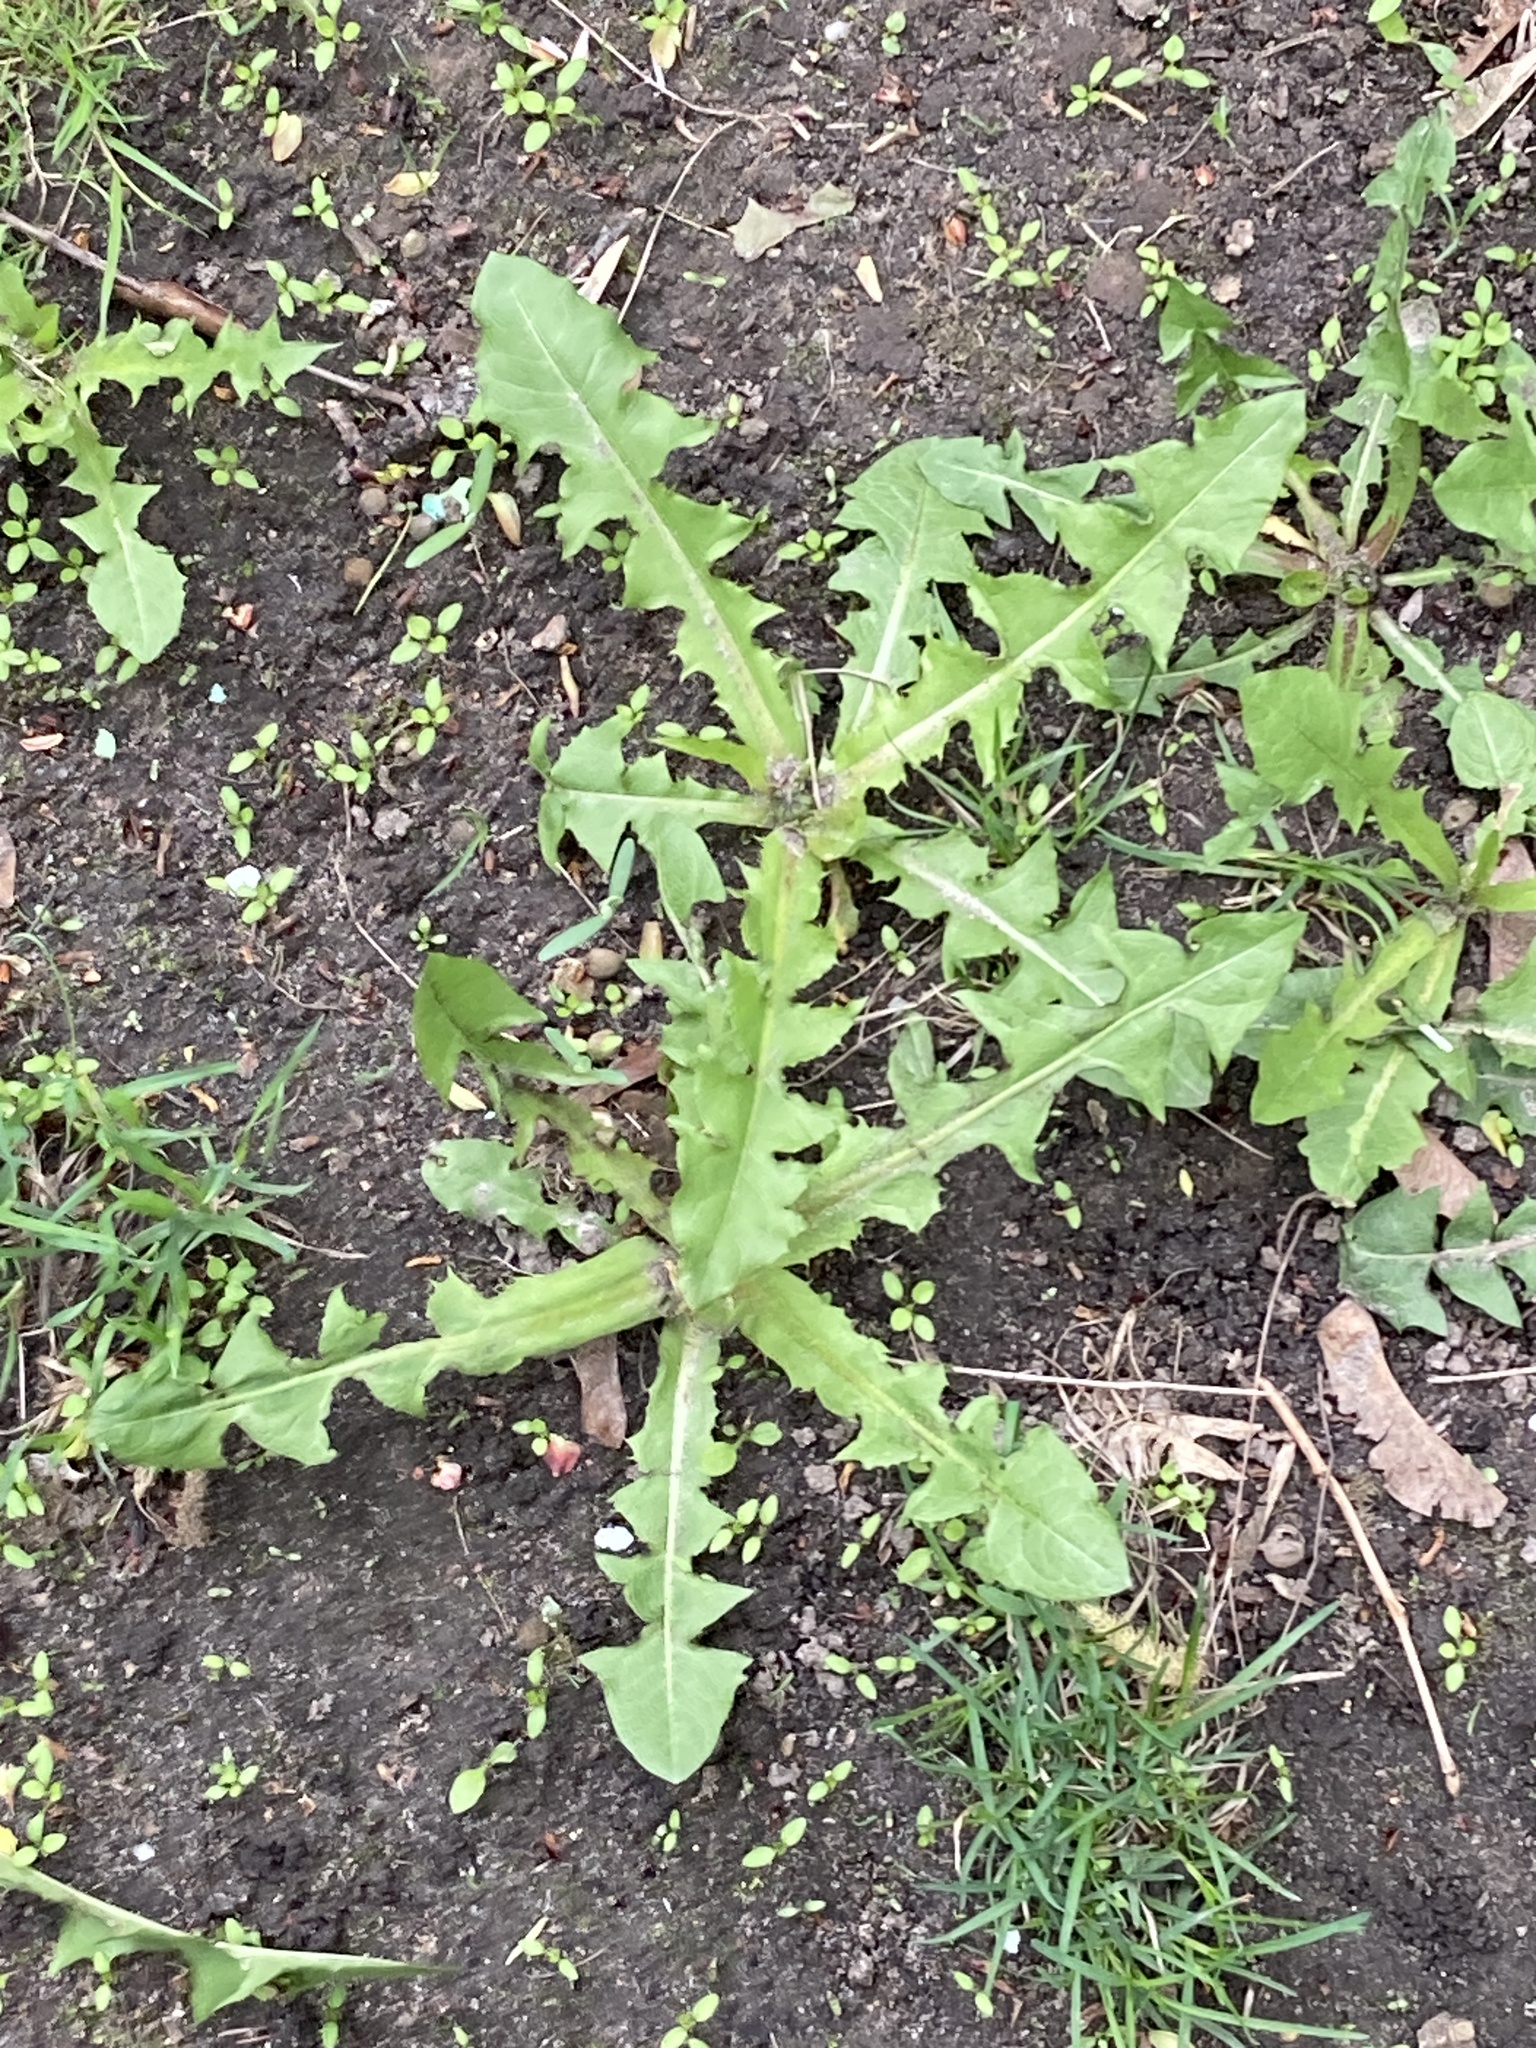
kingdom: Plantae
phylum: Tracheophyta
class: Magnoliopsida
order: Asterales
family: Asteraceae
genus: Taraxacum
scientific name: Taraxacum officinale
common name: Common dandelion
